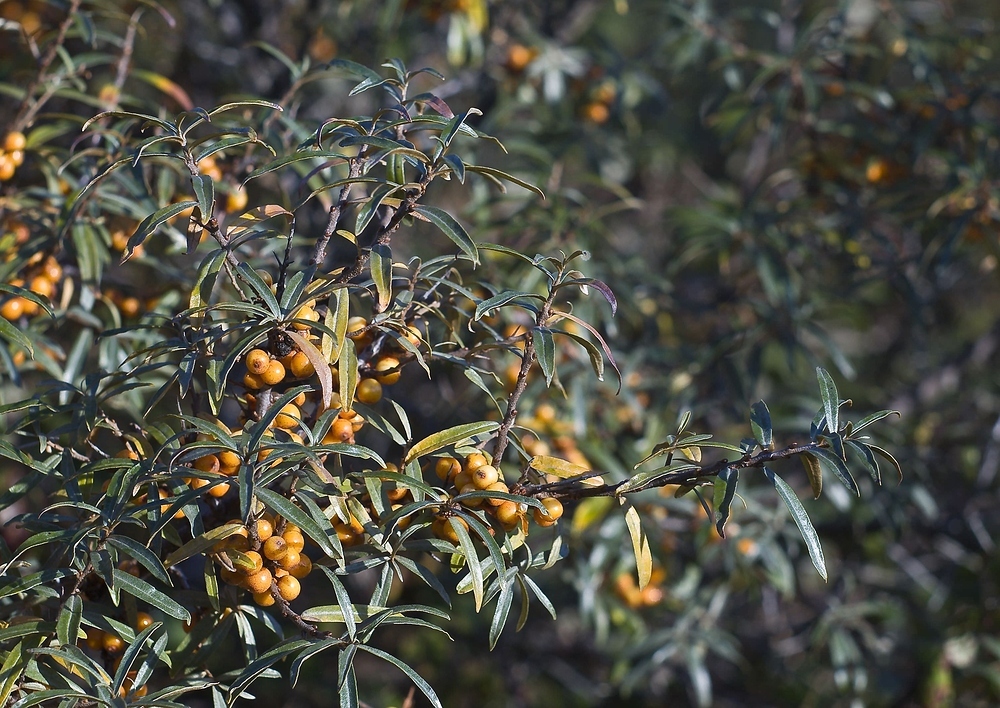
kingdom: Plantae
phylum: Tracheophyta
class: Magnoliopsida
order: Rosales
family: Elaeagnaceae
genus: Hippophae
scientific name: Hippophae rhamnoides
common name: Sea-buckthorn
